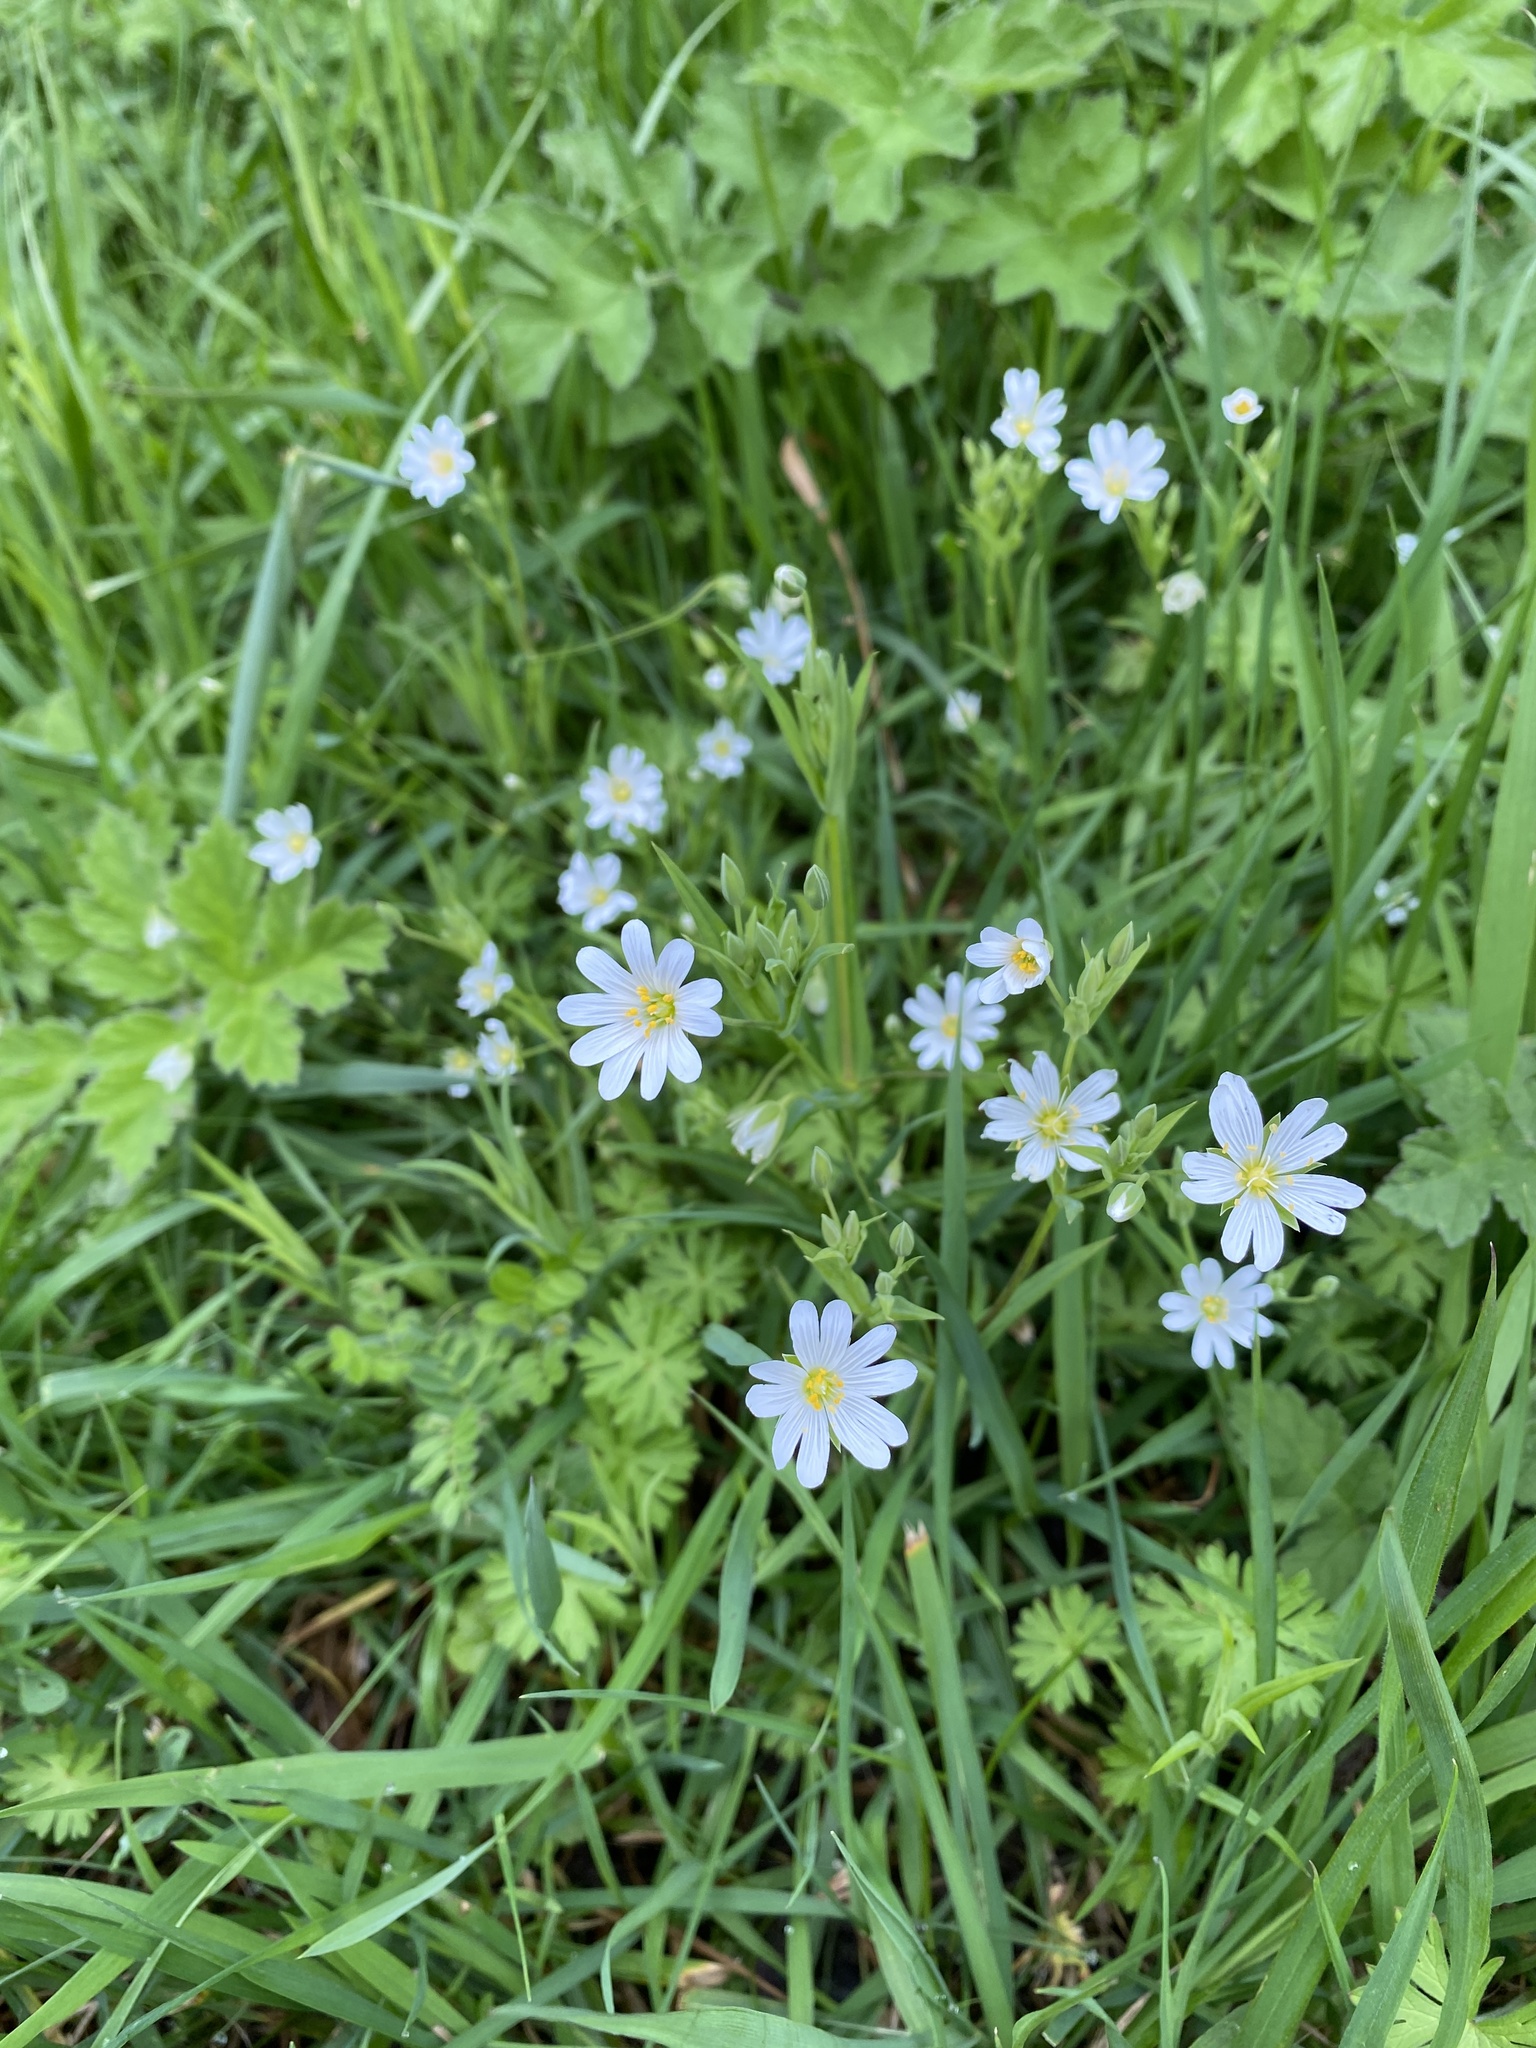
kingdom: Plantae
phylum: Tracheophyta
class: Magnoliopsida
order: Caryophyllales
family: Caryophyllaceae
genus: Rabelera
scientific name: Rabelera holostea
